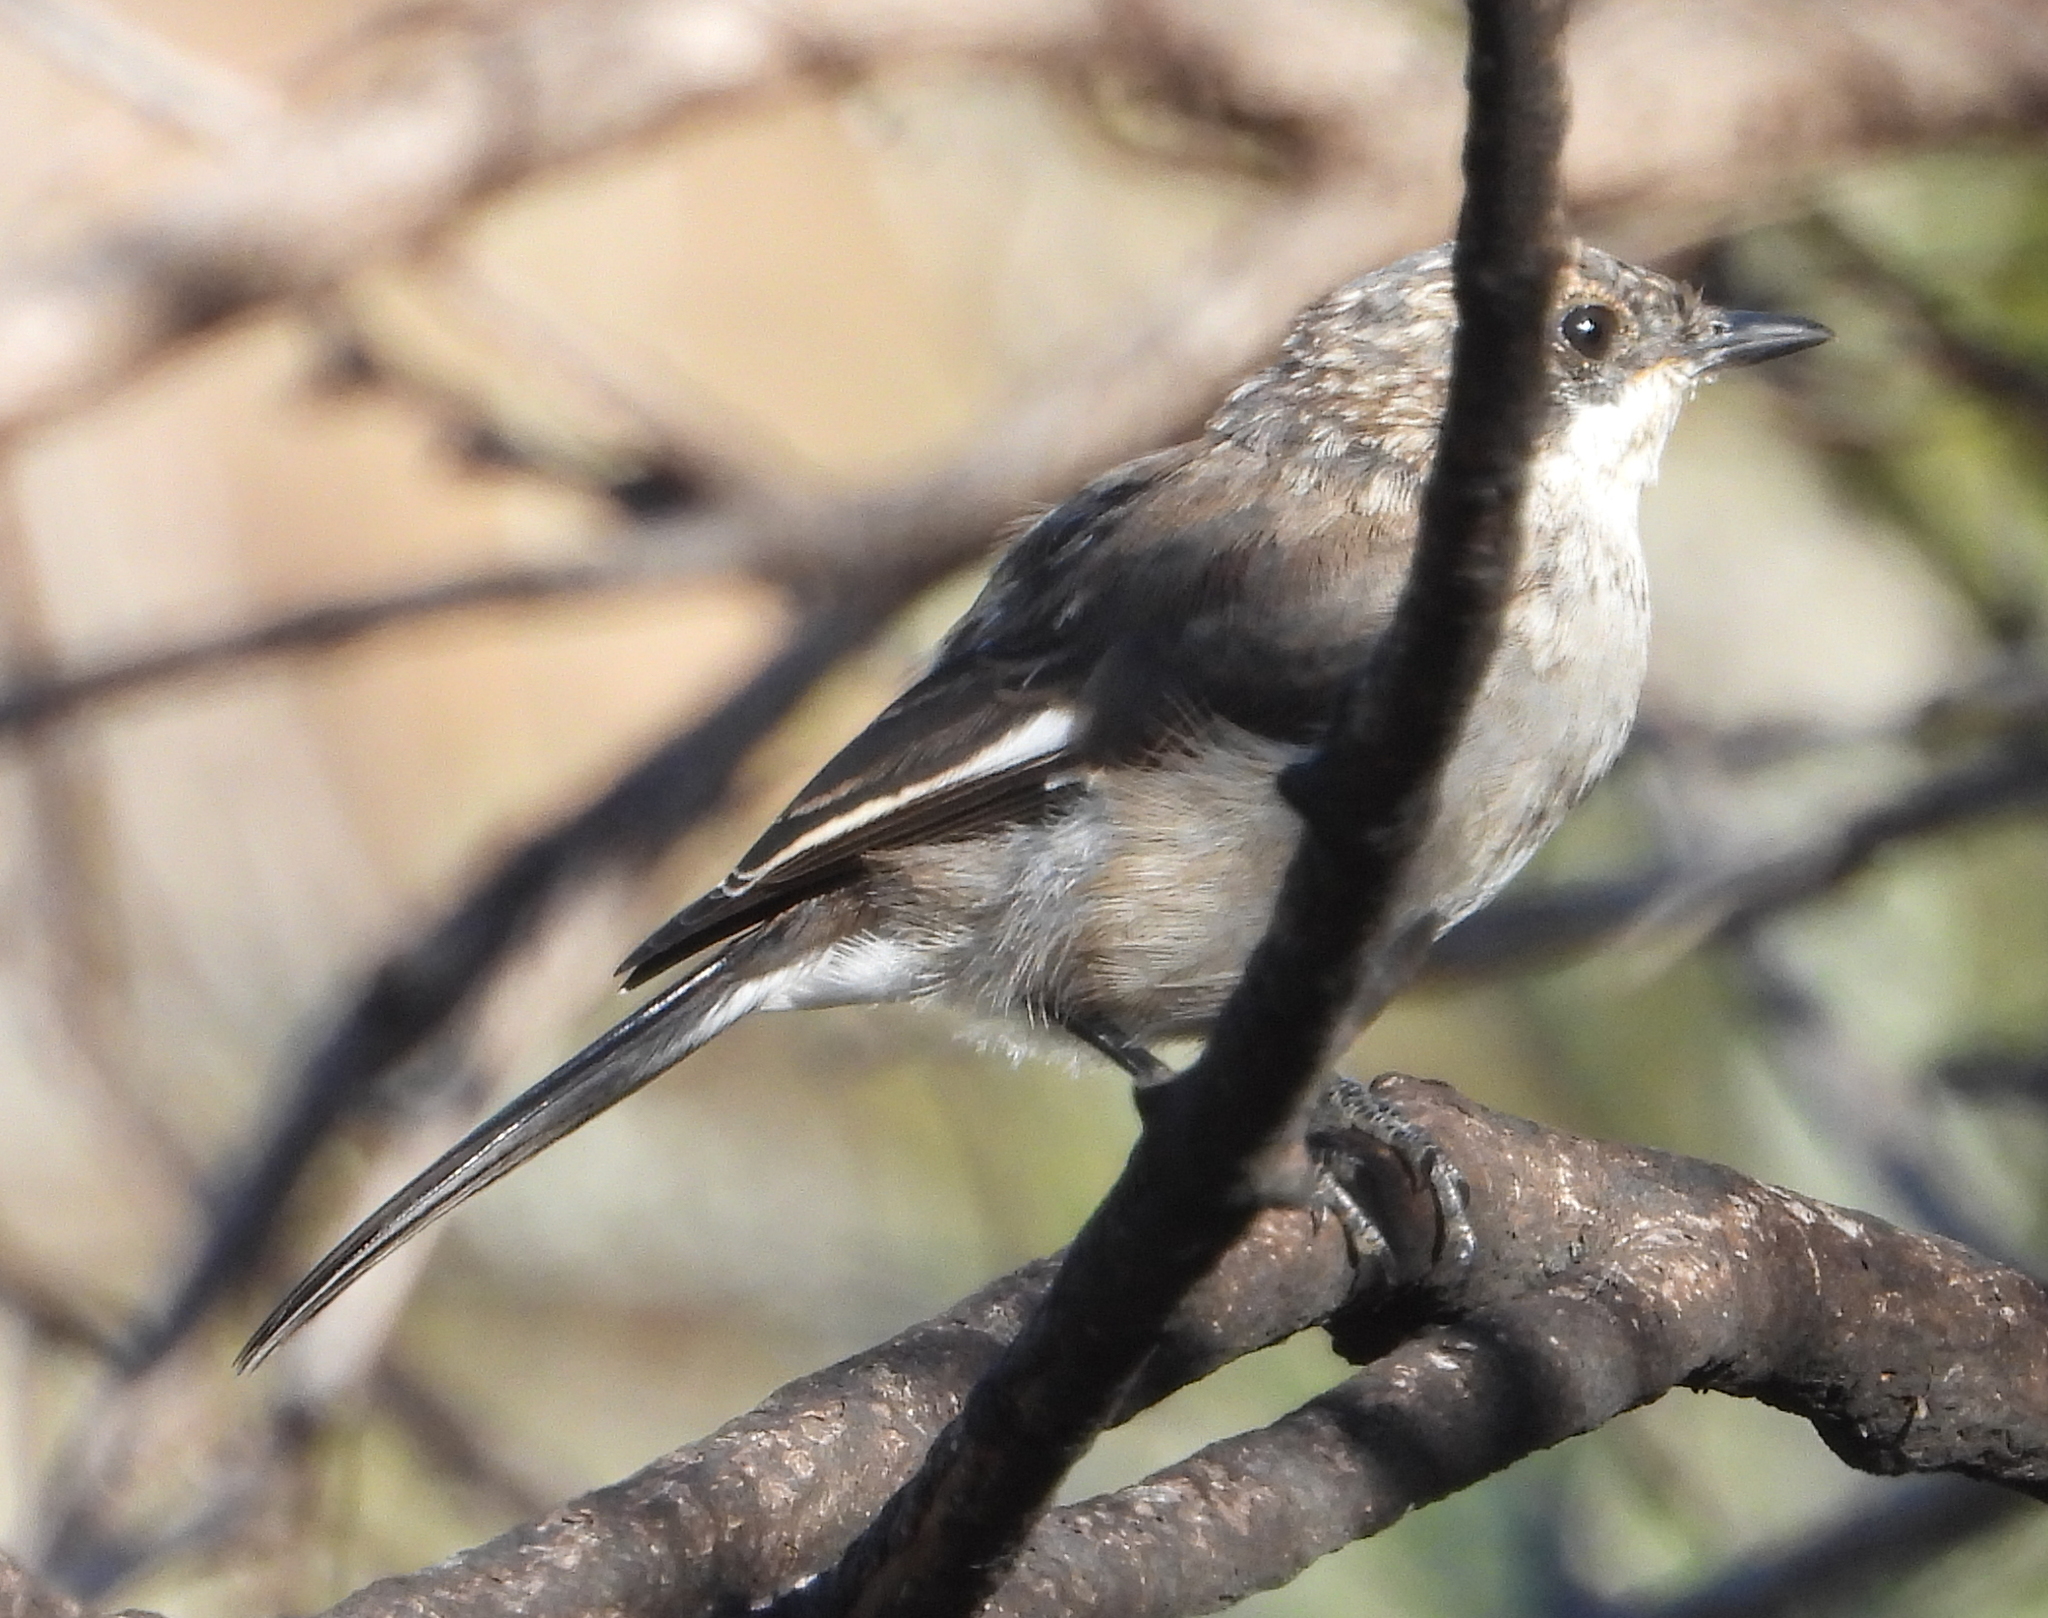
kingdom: Animalia
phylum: Chordata
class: Aves
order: Passeriformes
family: Muscicapidae
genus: Sigelus
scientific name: Sigelus silens
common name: Fiscal flycatcher
